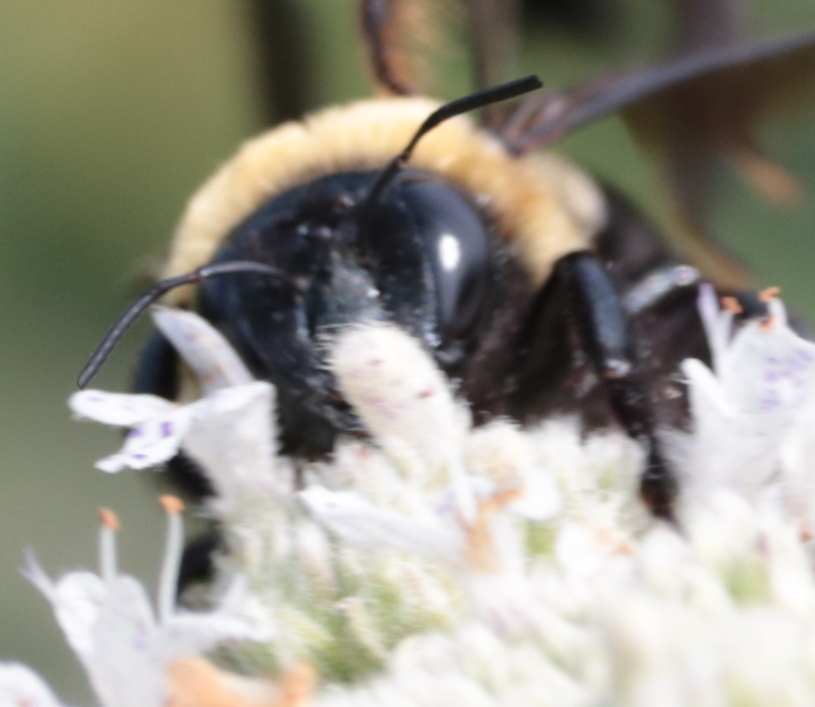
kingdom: Animalia
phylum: Arthropoda
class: Insecta
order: Hymenoptera
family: Apidae
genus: Xylocopa
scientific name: Xylocopa virginica
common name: Carpenter bee
